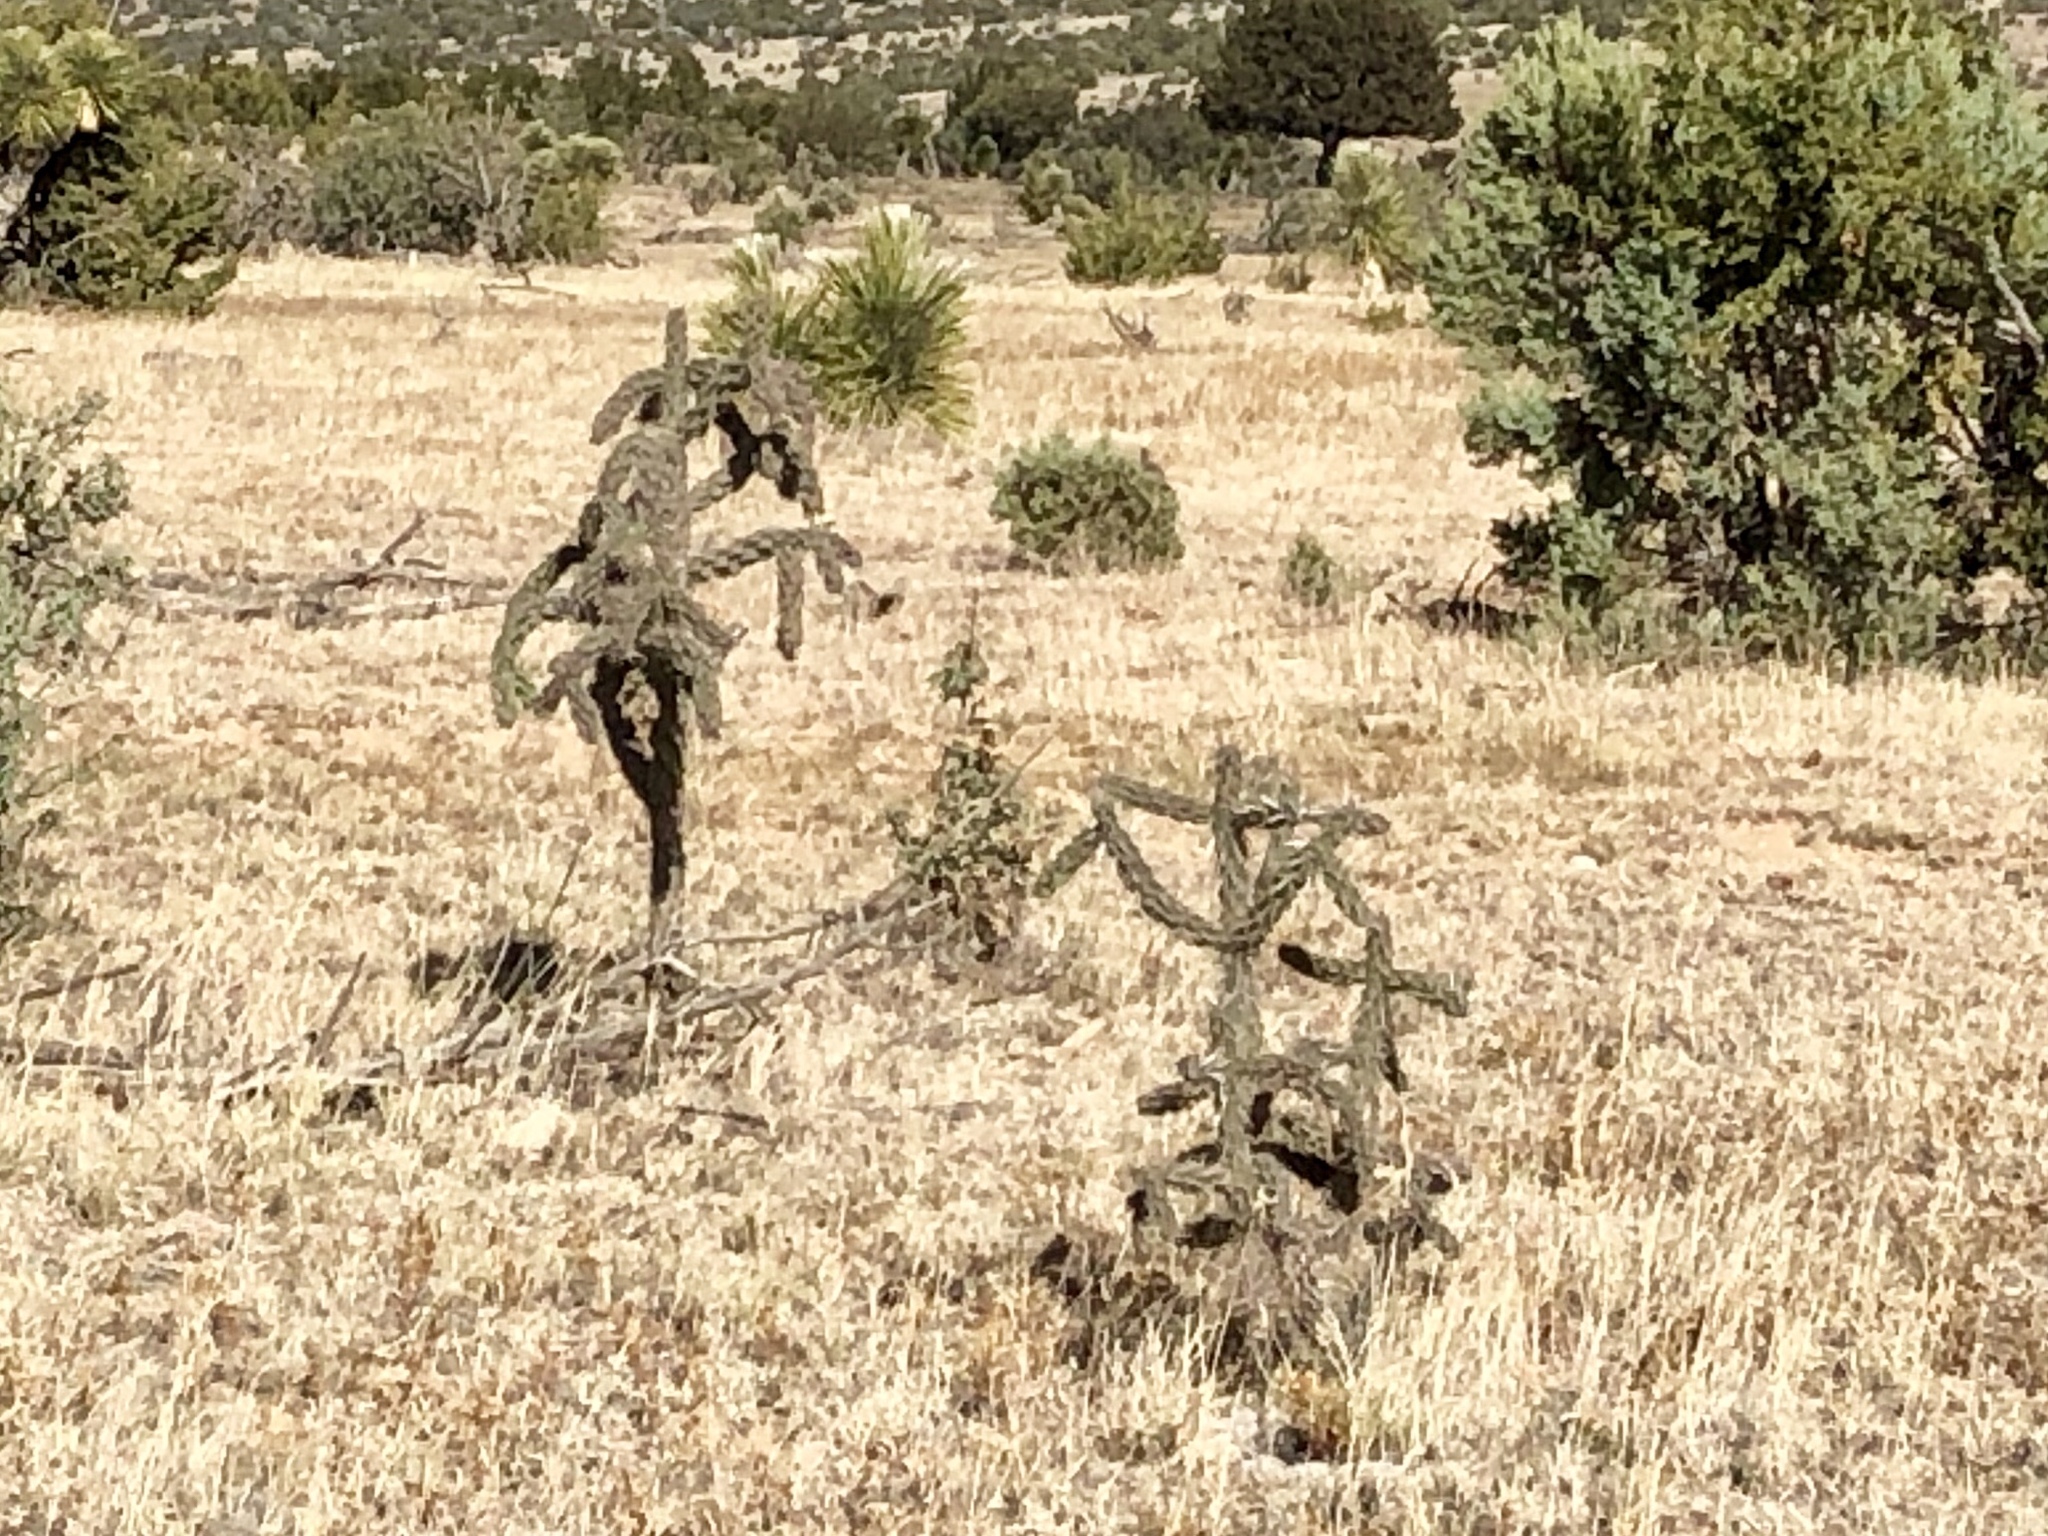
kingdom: Plantae
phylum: Tracheophyta
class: Magnoliopsida
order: Caryophyllales
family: Cactaceae
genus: Cylindropuntia
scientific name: Cylindropuntia imbricata
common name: Candelabrum cactus
